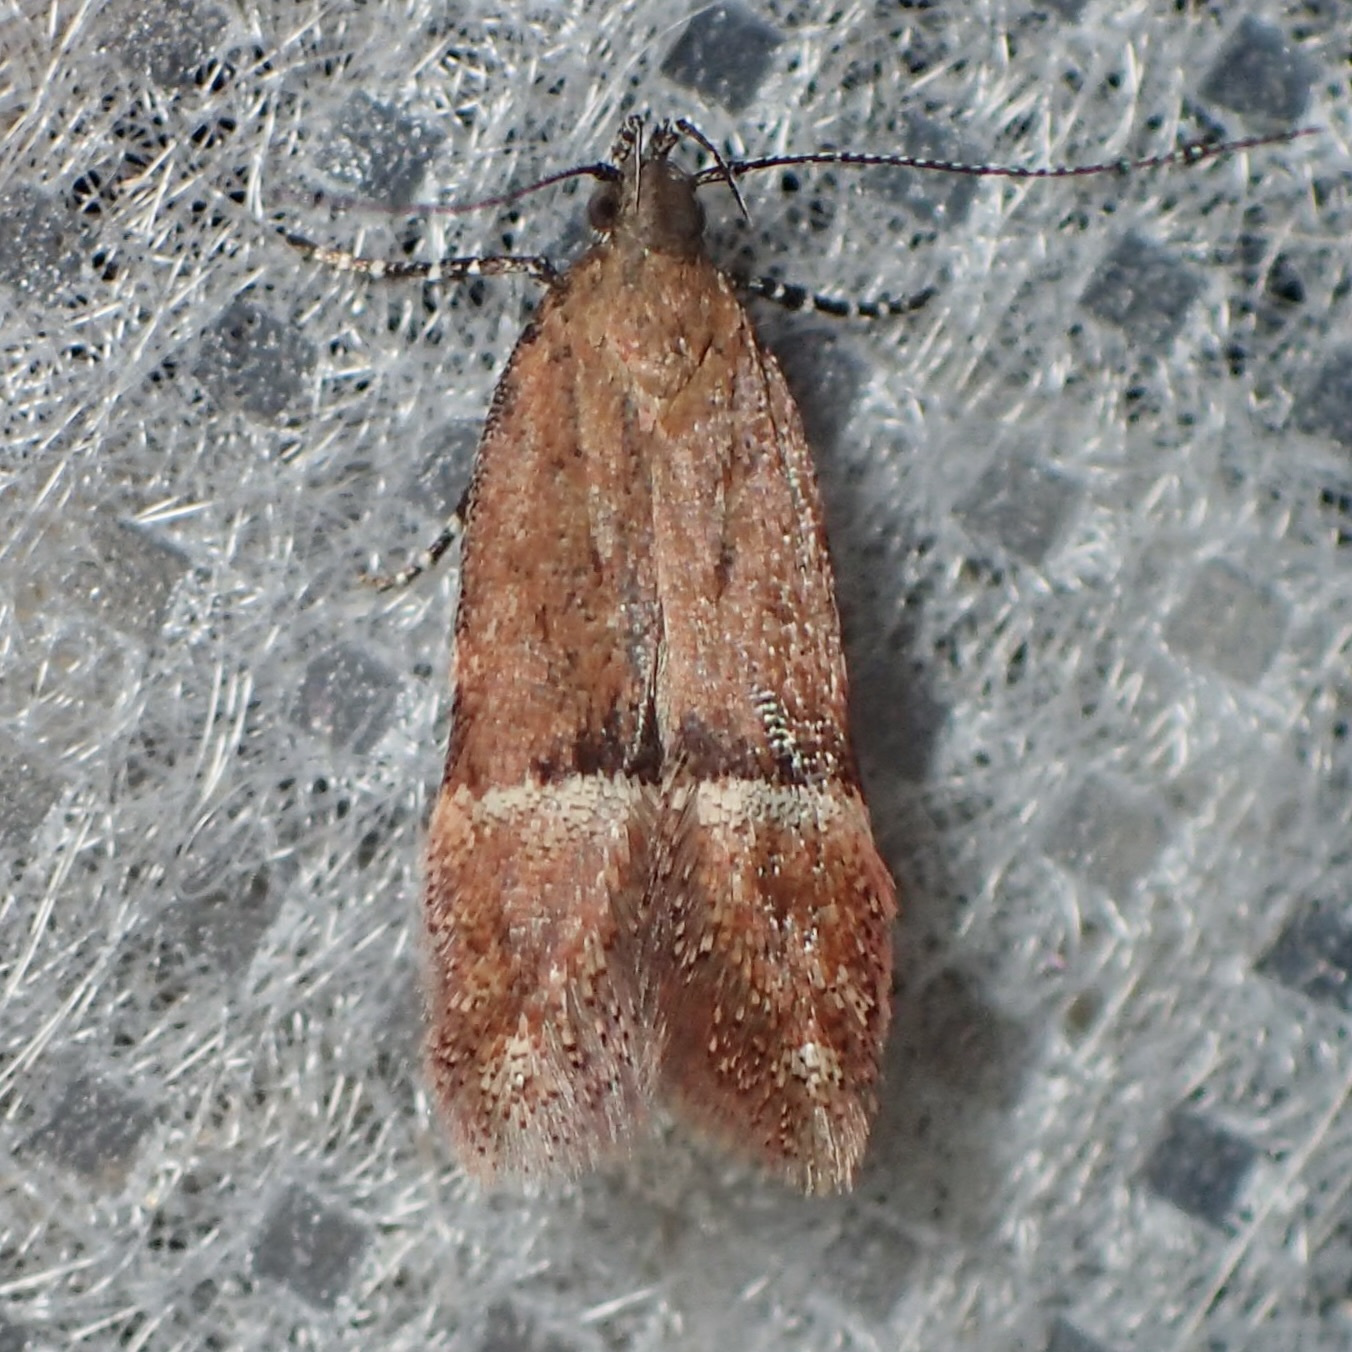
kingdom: Animalia
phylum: Arthropoda
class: Insecta
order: Lepidoptera
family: Gelechiidae
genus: Eudactylota
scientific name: Eudactylota iobapta
